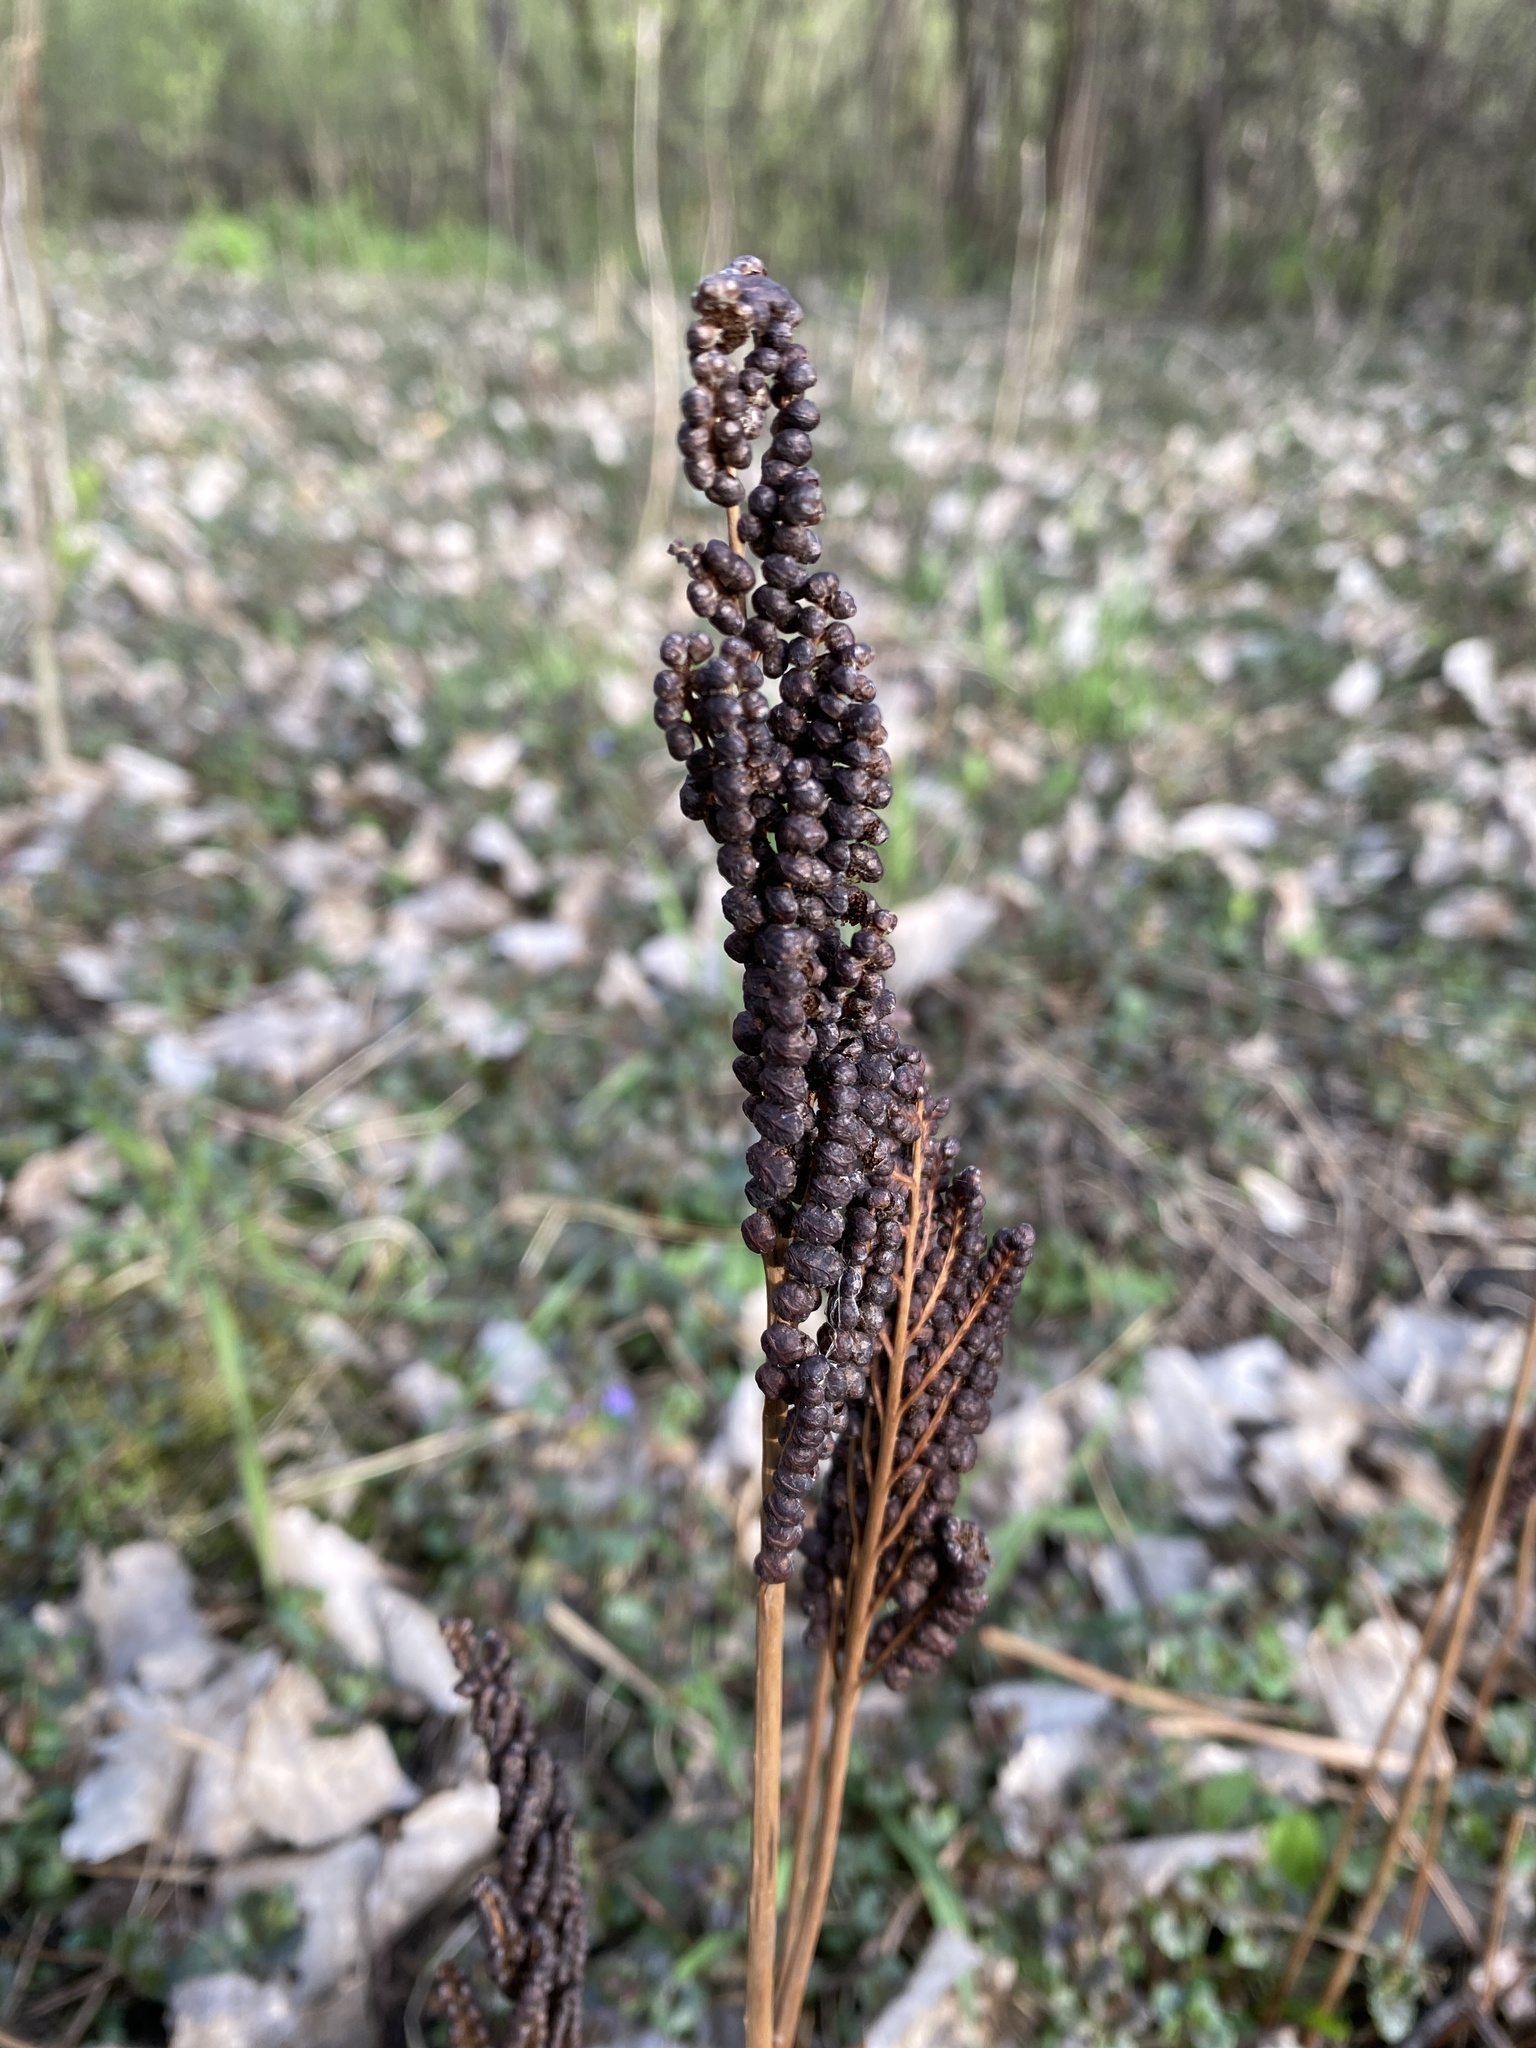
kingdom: Plantae
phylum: Tracheophyta
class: Polypodiopsida
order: Polypodiales
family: Onocleaceae
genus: Onoclea
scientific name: Onoclea sensibilis
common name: Sensitive fern
